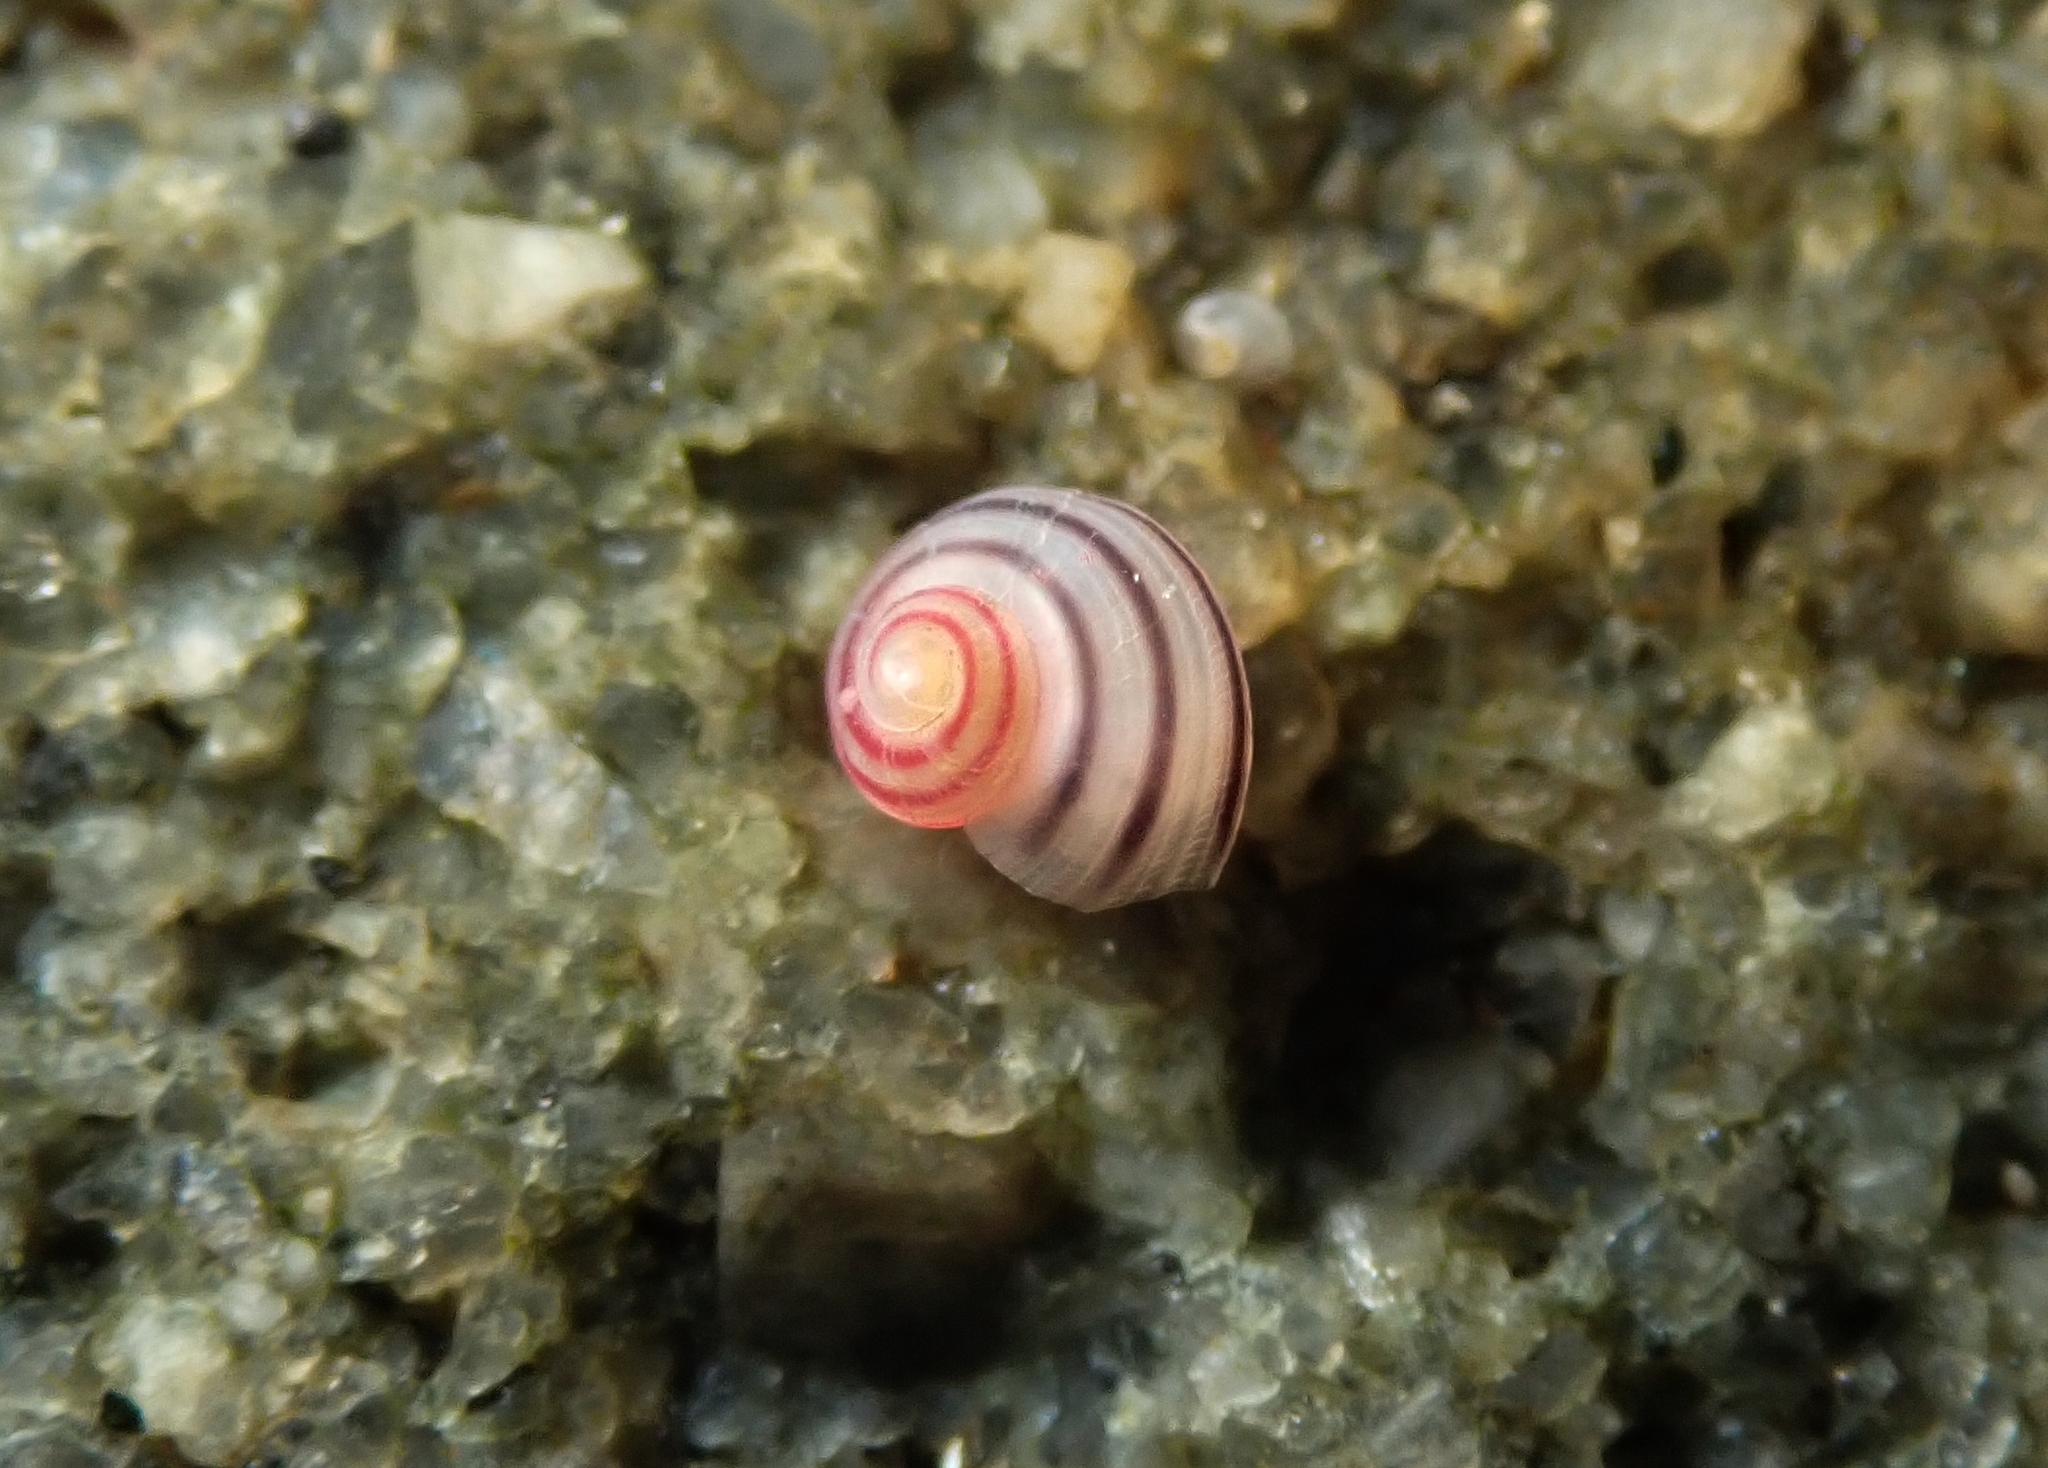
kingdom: Animalia
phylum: Mollusca
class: Gastropoda
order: Trochida
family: Trochidae
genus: Coelotrochus
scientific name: Coelotrochus chathamensis
